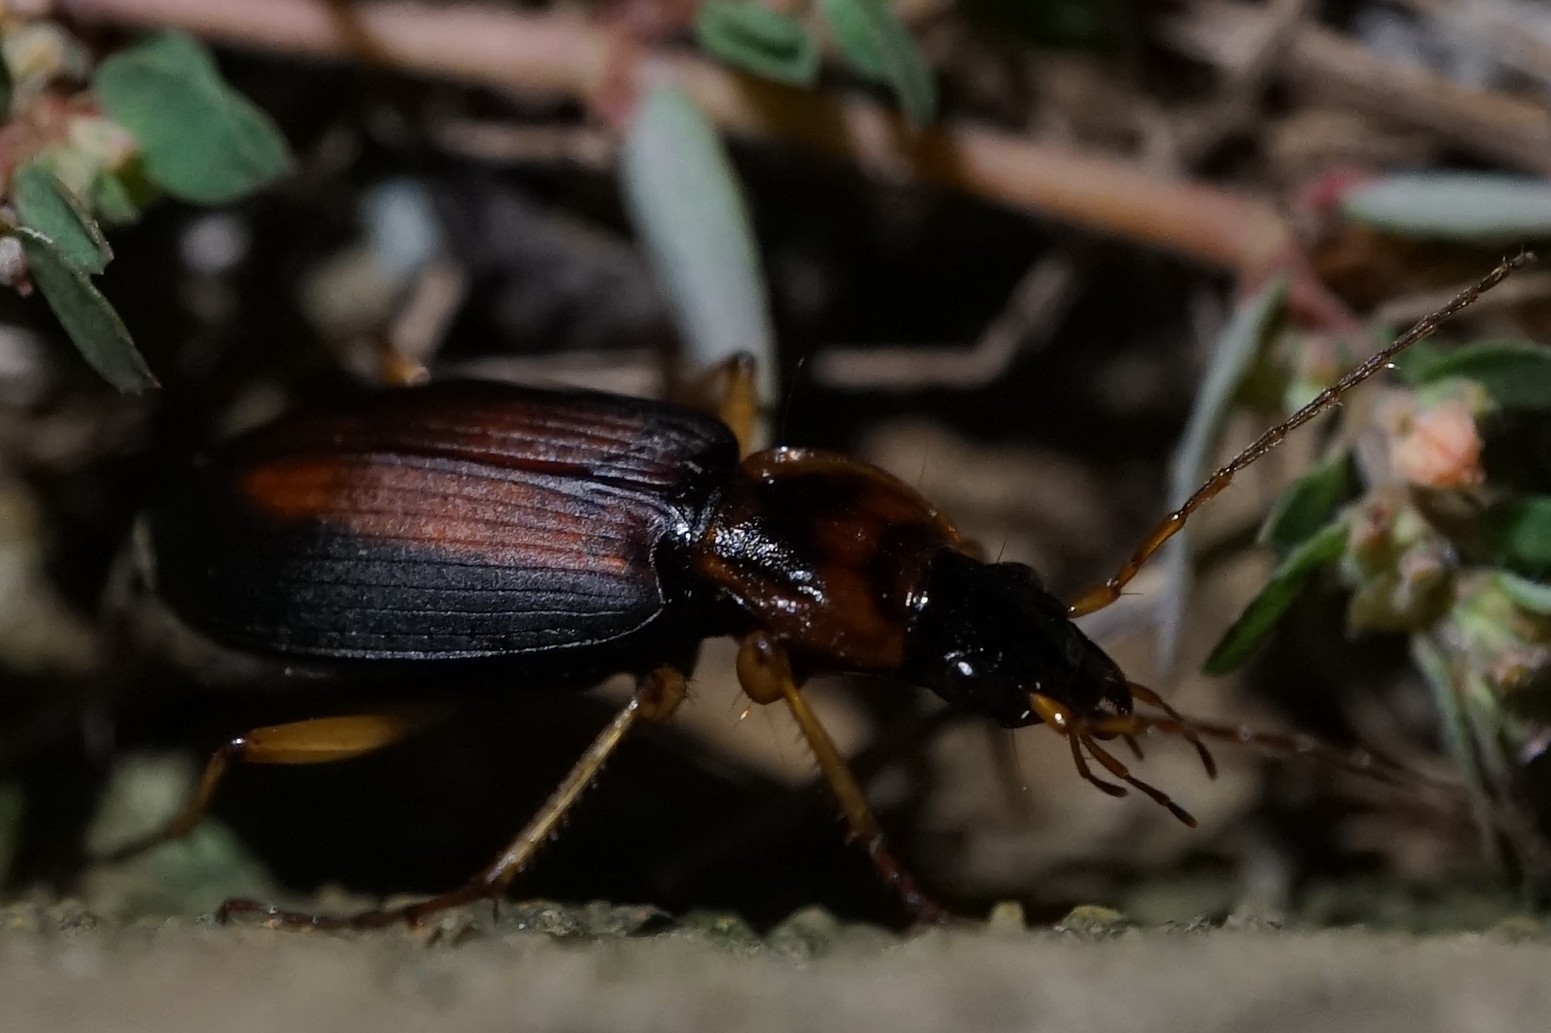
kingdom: Animalia
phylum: Arthropoda
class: Insecta
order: Coleoptera
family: Carabidae
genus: Dolichus
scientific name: Dolichus halensis
